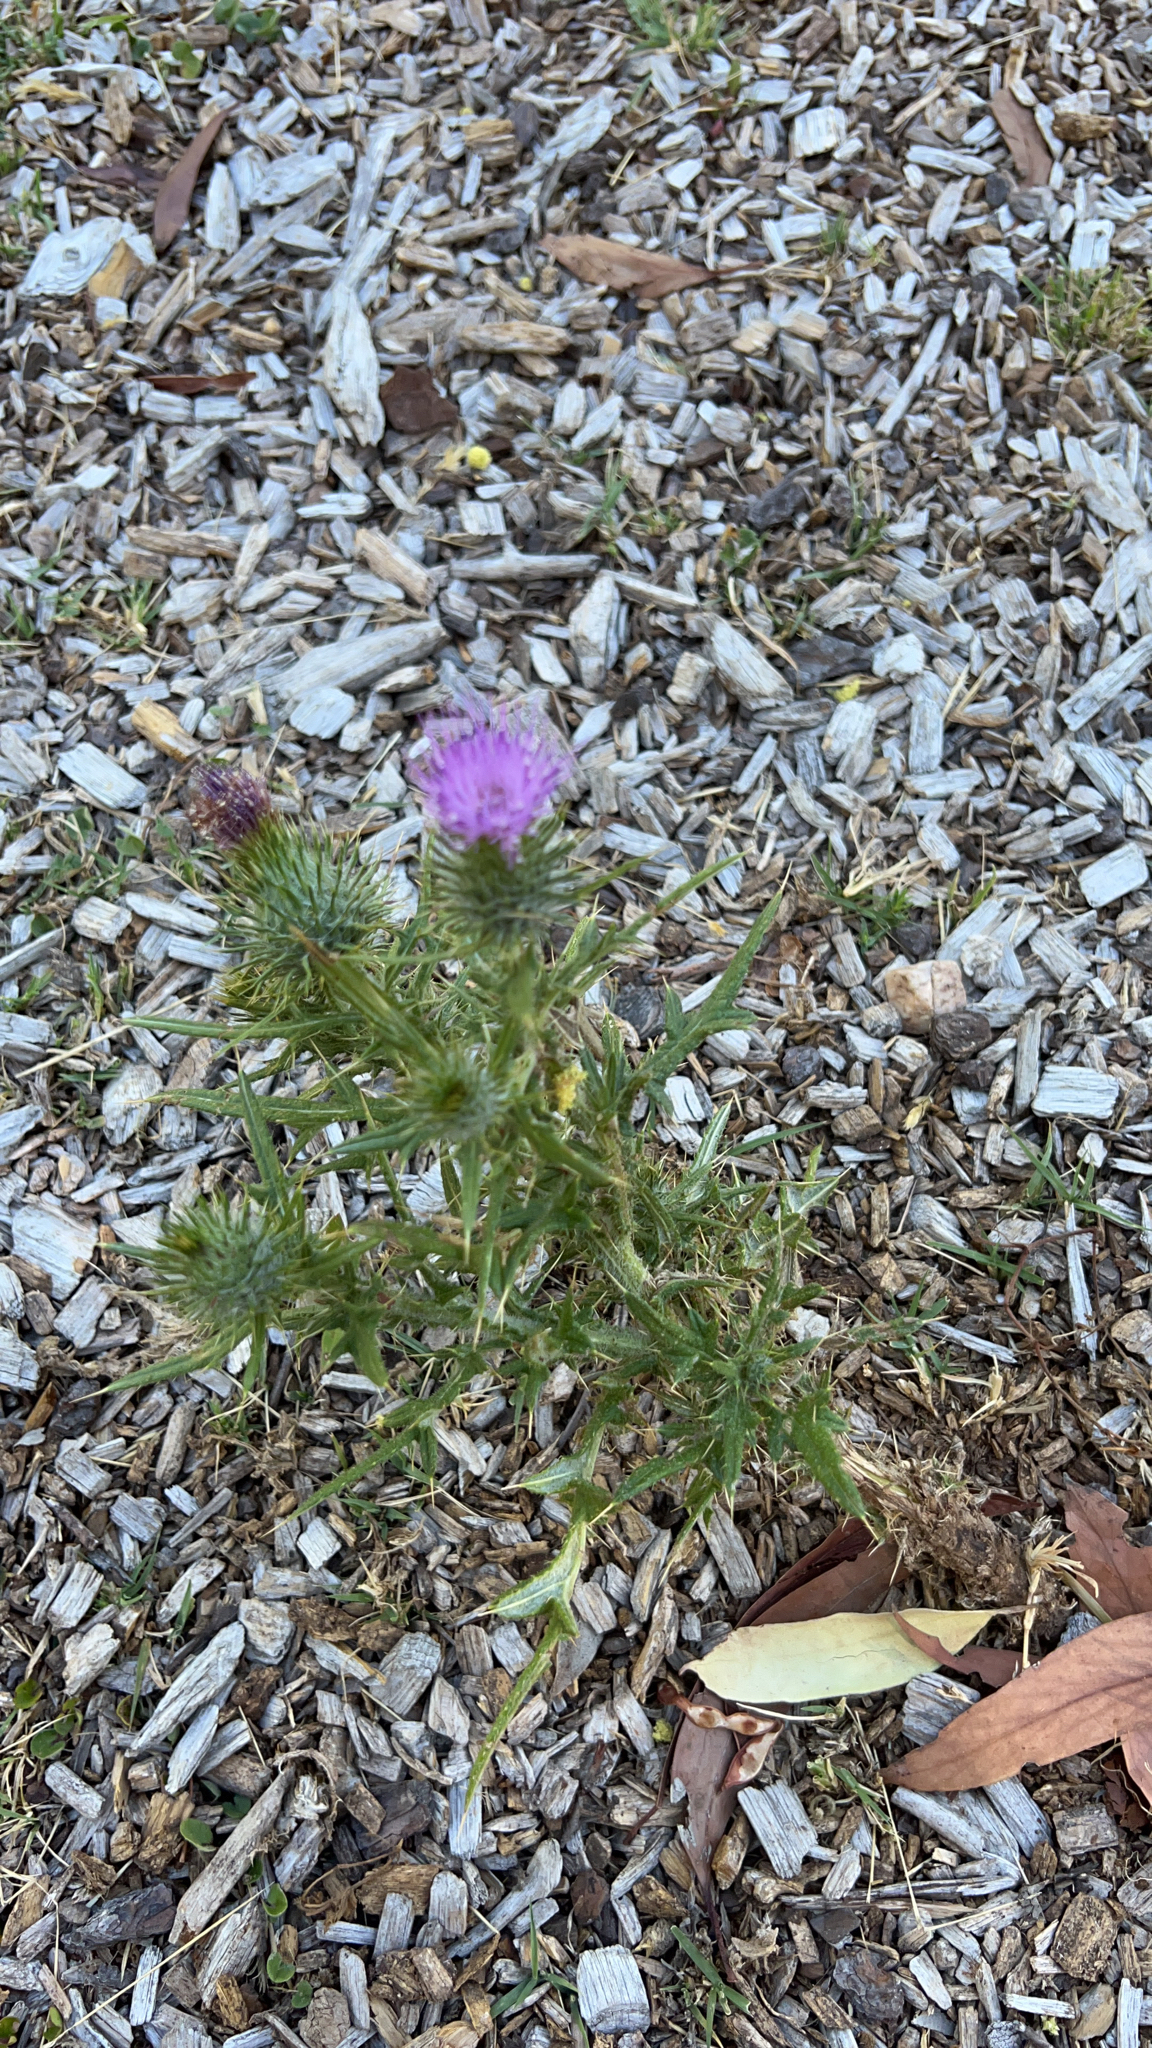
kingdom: Plantae
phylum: Tracheophyta
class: Magnoliopsida
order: Asterales
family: Asteraceae
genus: Cirsium
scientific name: Cirsium vulgare
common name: Bull thistle
